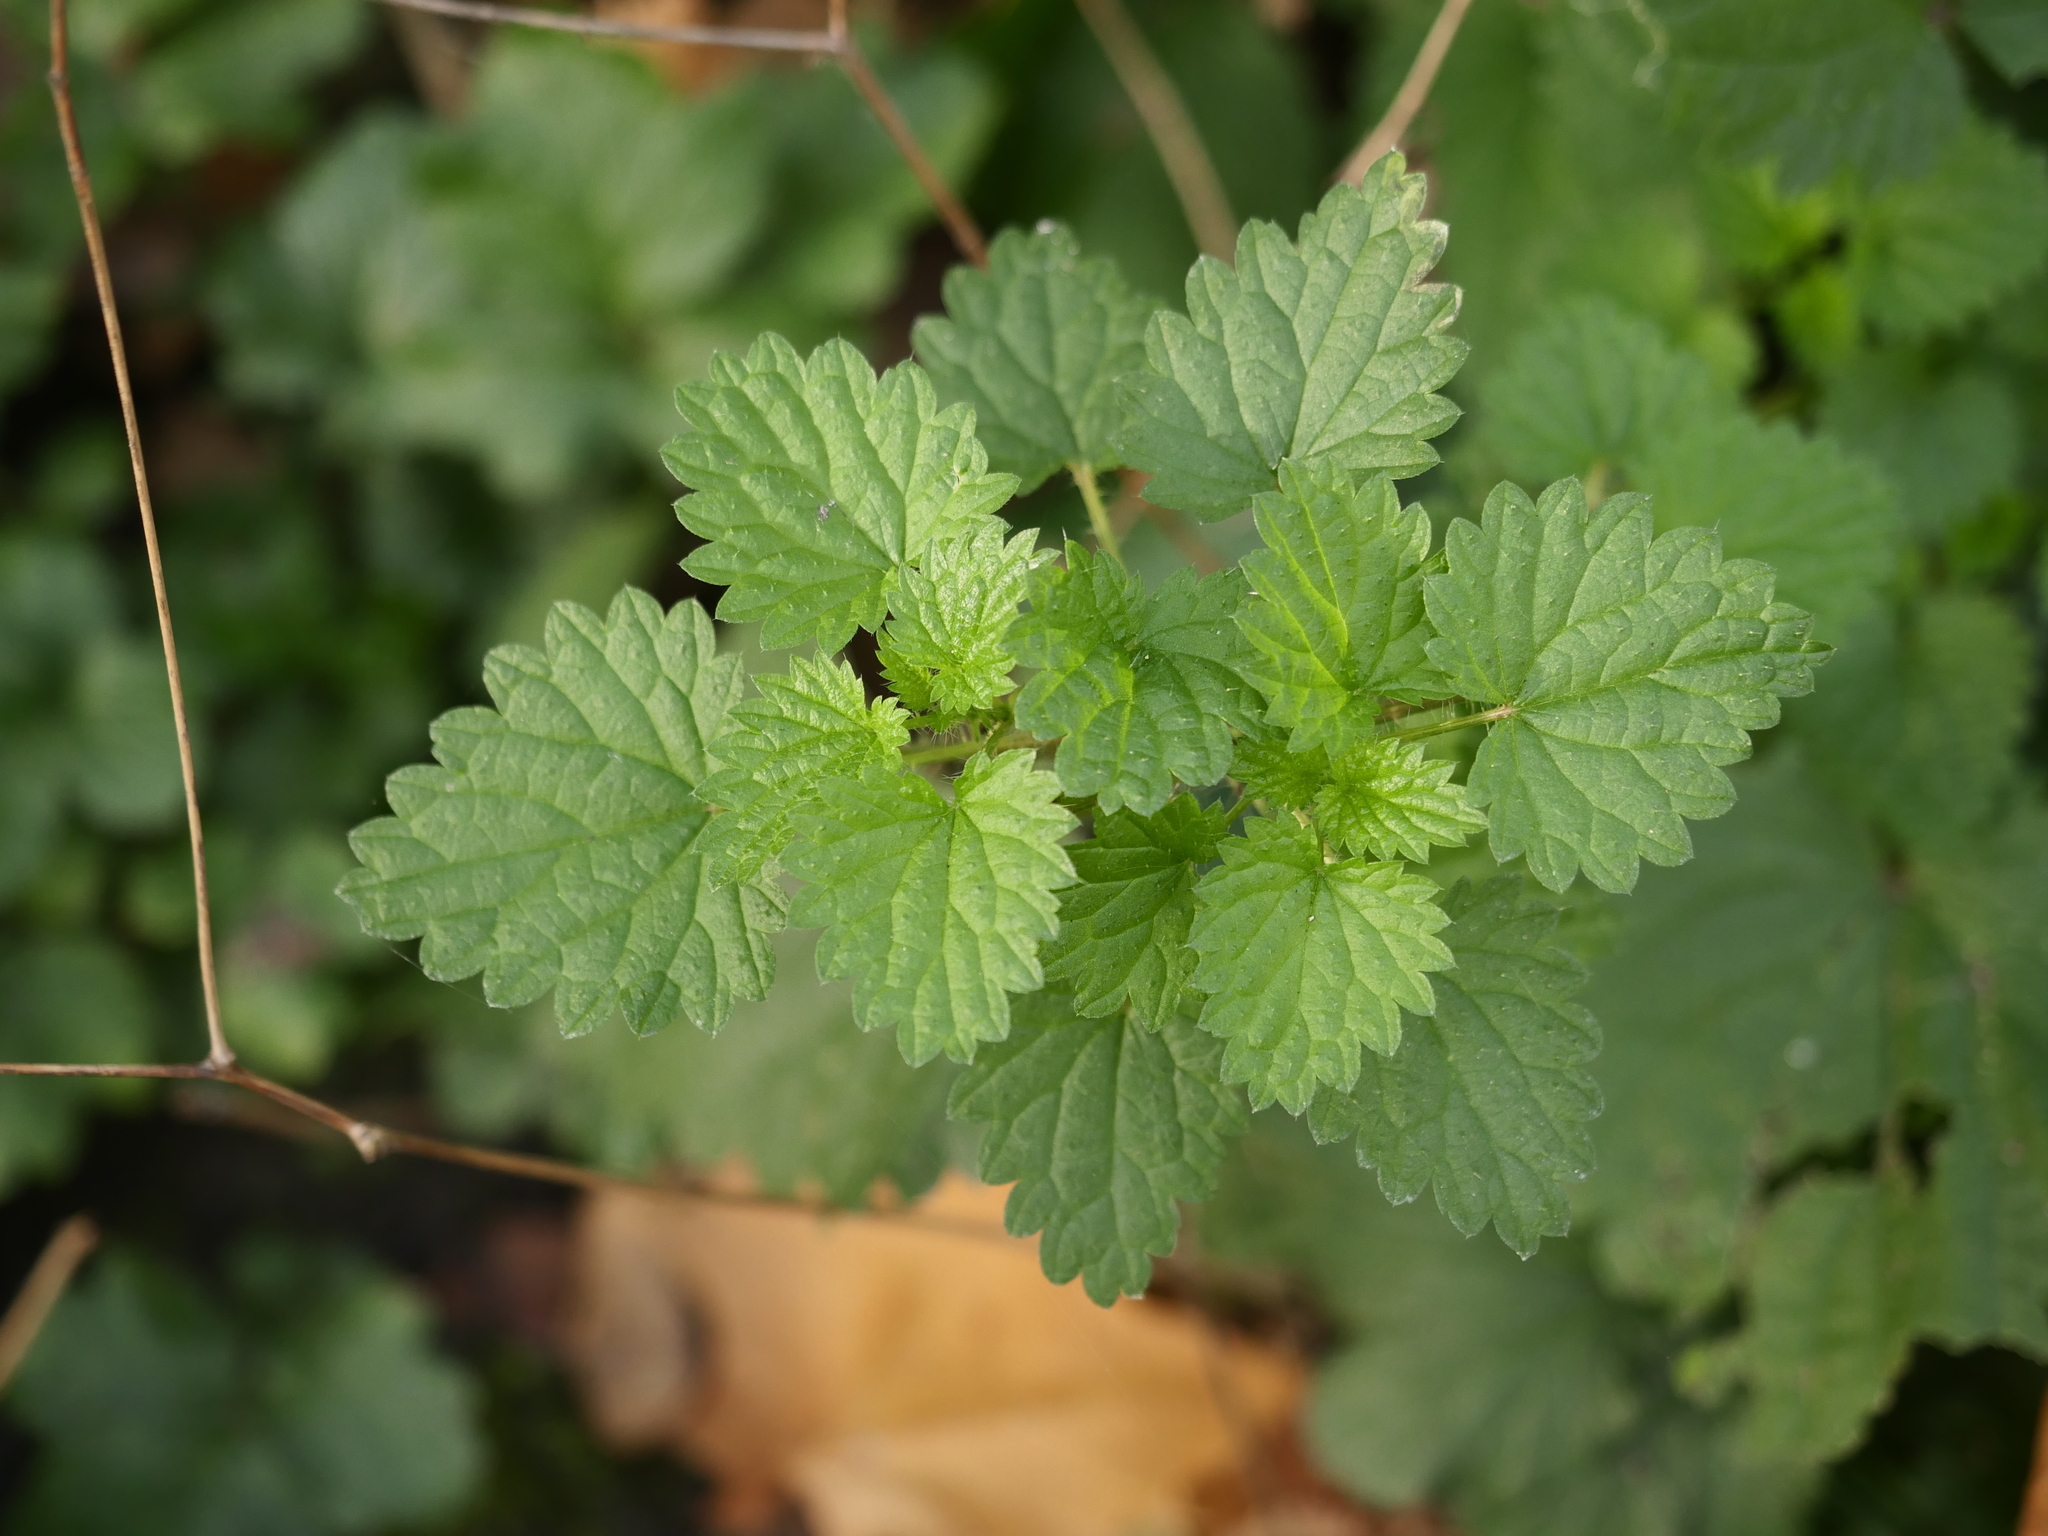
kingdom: Plantae
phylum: Tracheophyta
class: Magnoliopsida
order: Rosales
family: Urticaceae
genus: Urtica
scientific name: Urtica dioica
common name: Common nettle
